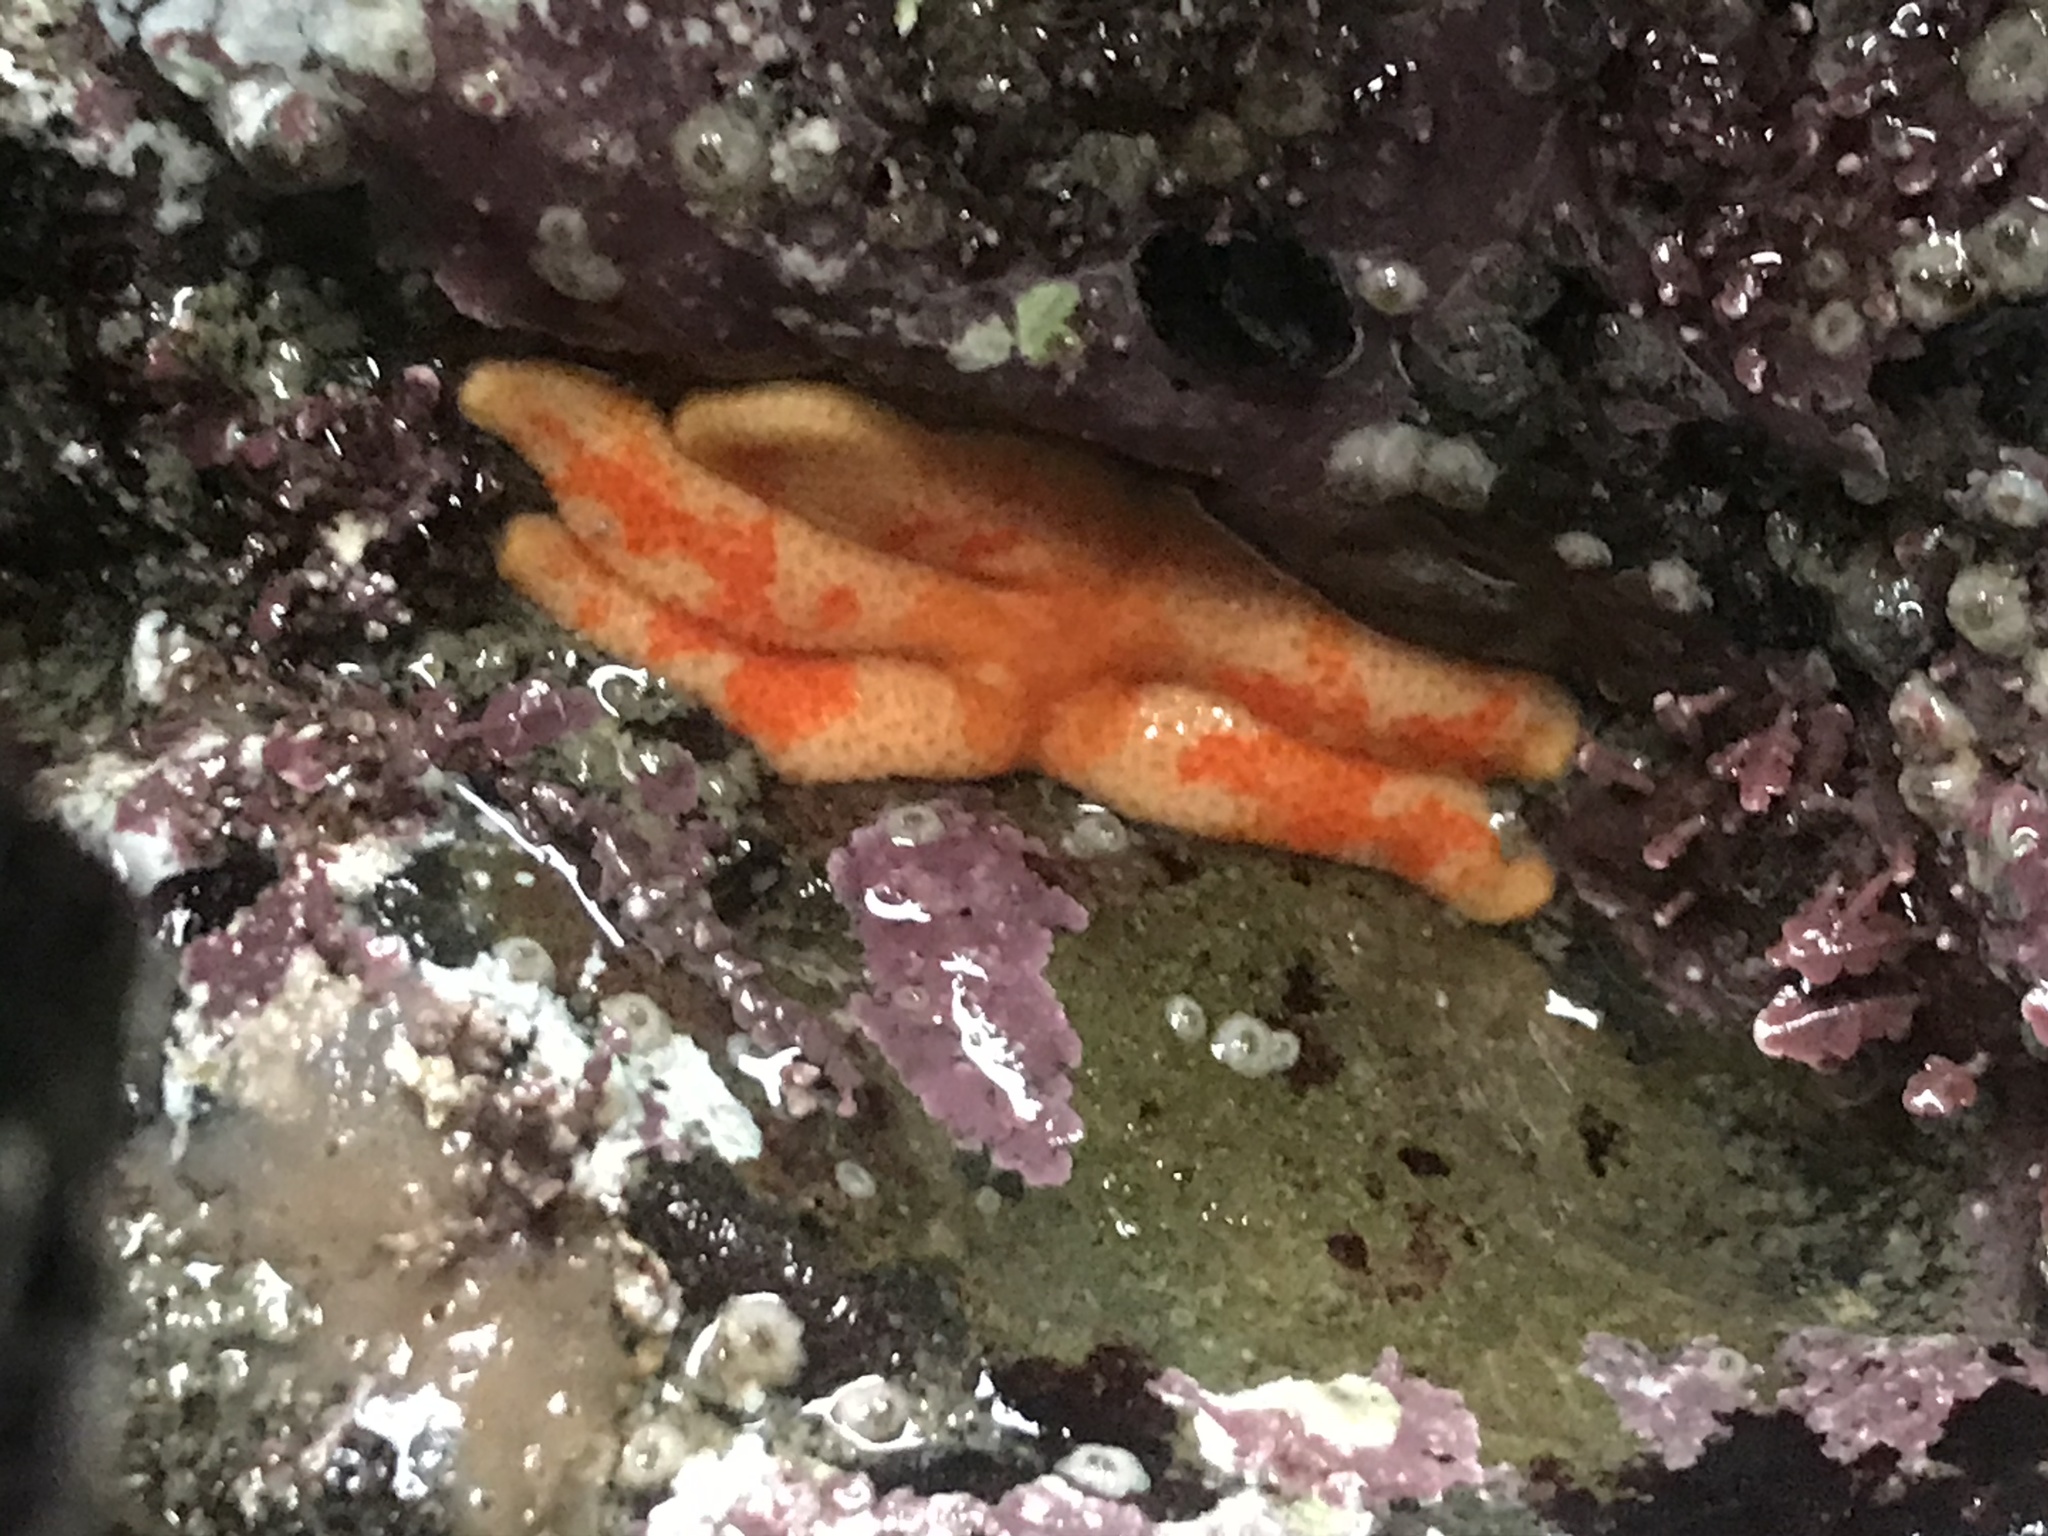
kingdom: Animalia
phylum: Echinodermata
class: Asteroidea
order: Spinulosida
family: Echinasteridae
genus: Henricia
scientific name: Henricia pumila
